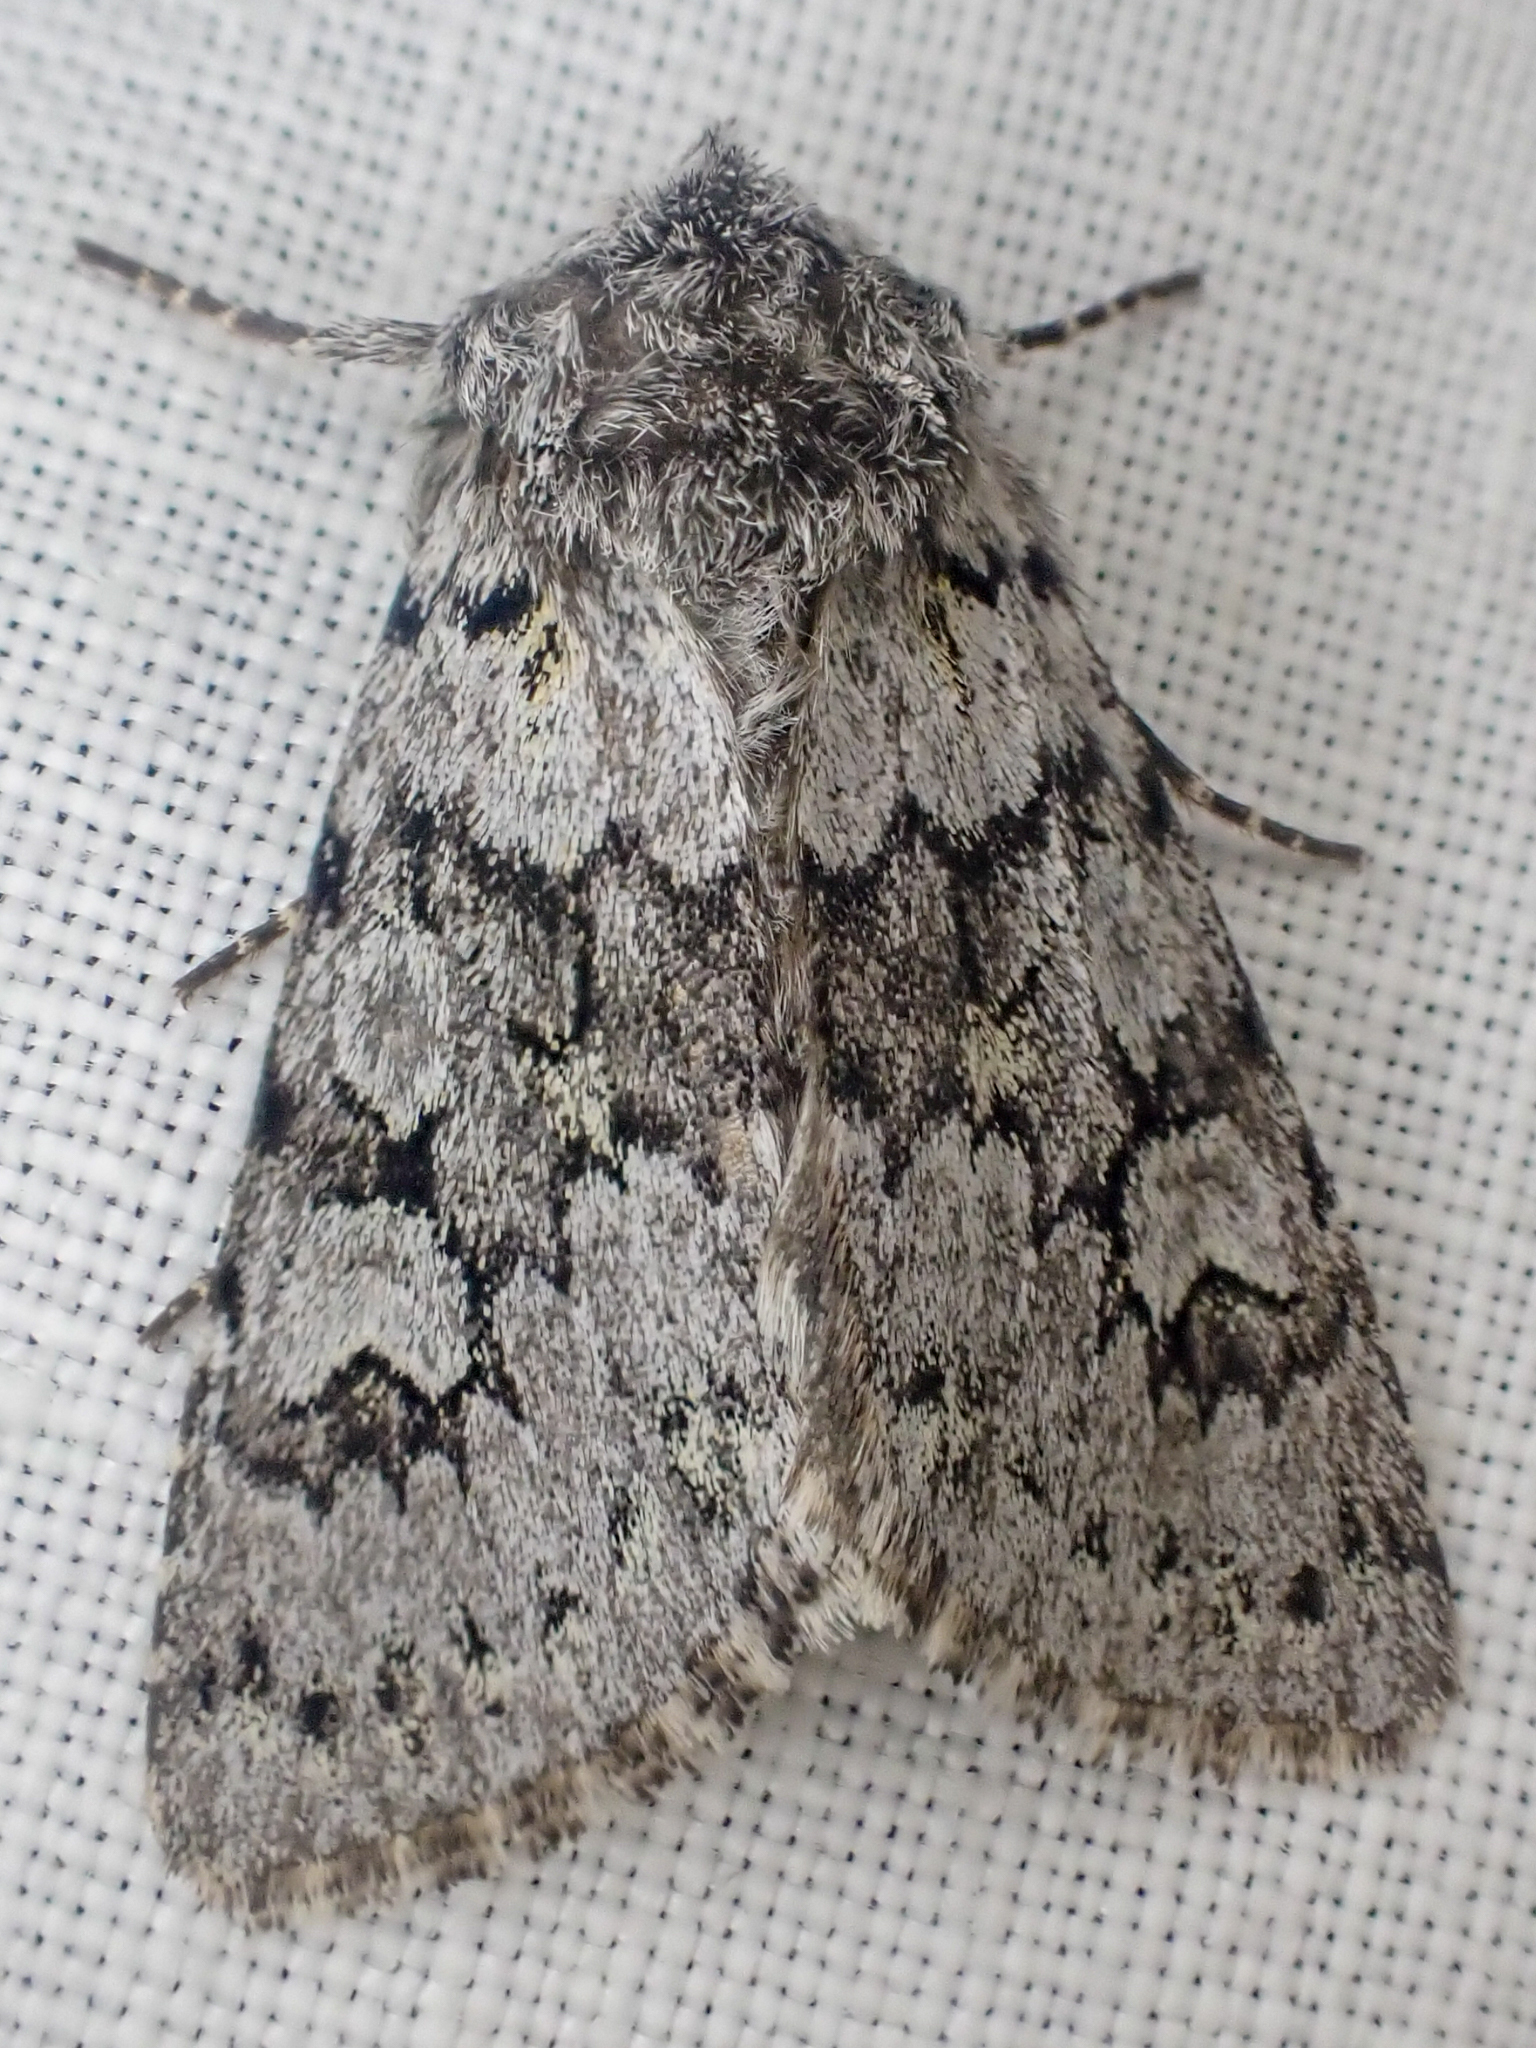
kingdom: Animalia
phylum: Arthropoda
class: Insecta
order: Lepidoptera
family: Noctuidae
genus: Lasionycta
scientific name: Lasionycta mutilata
